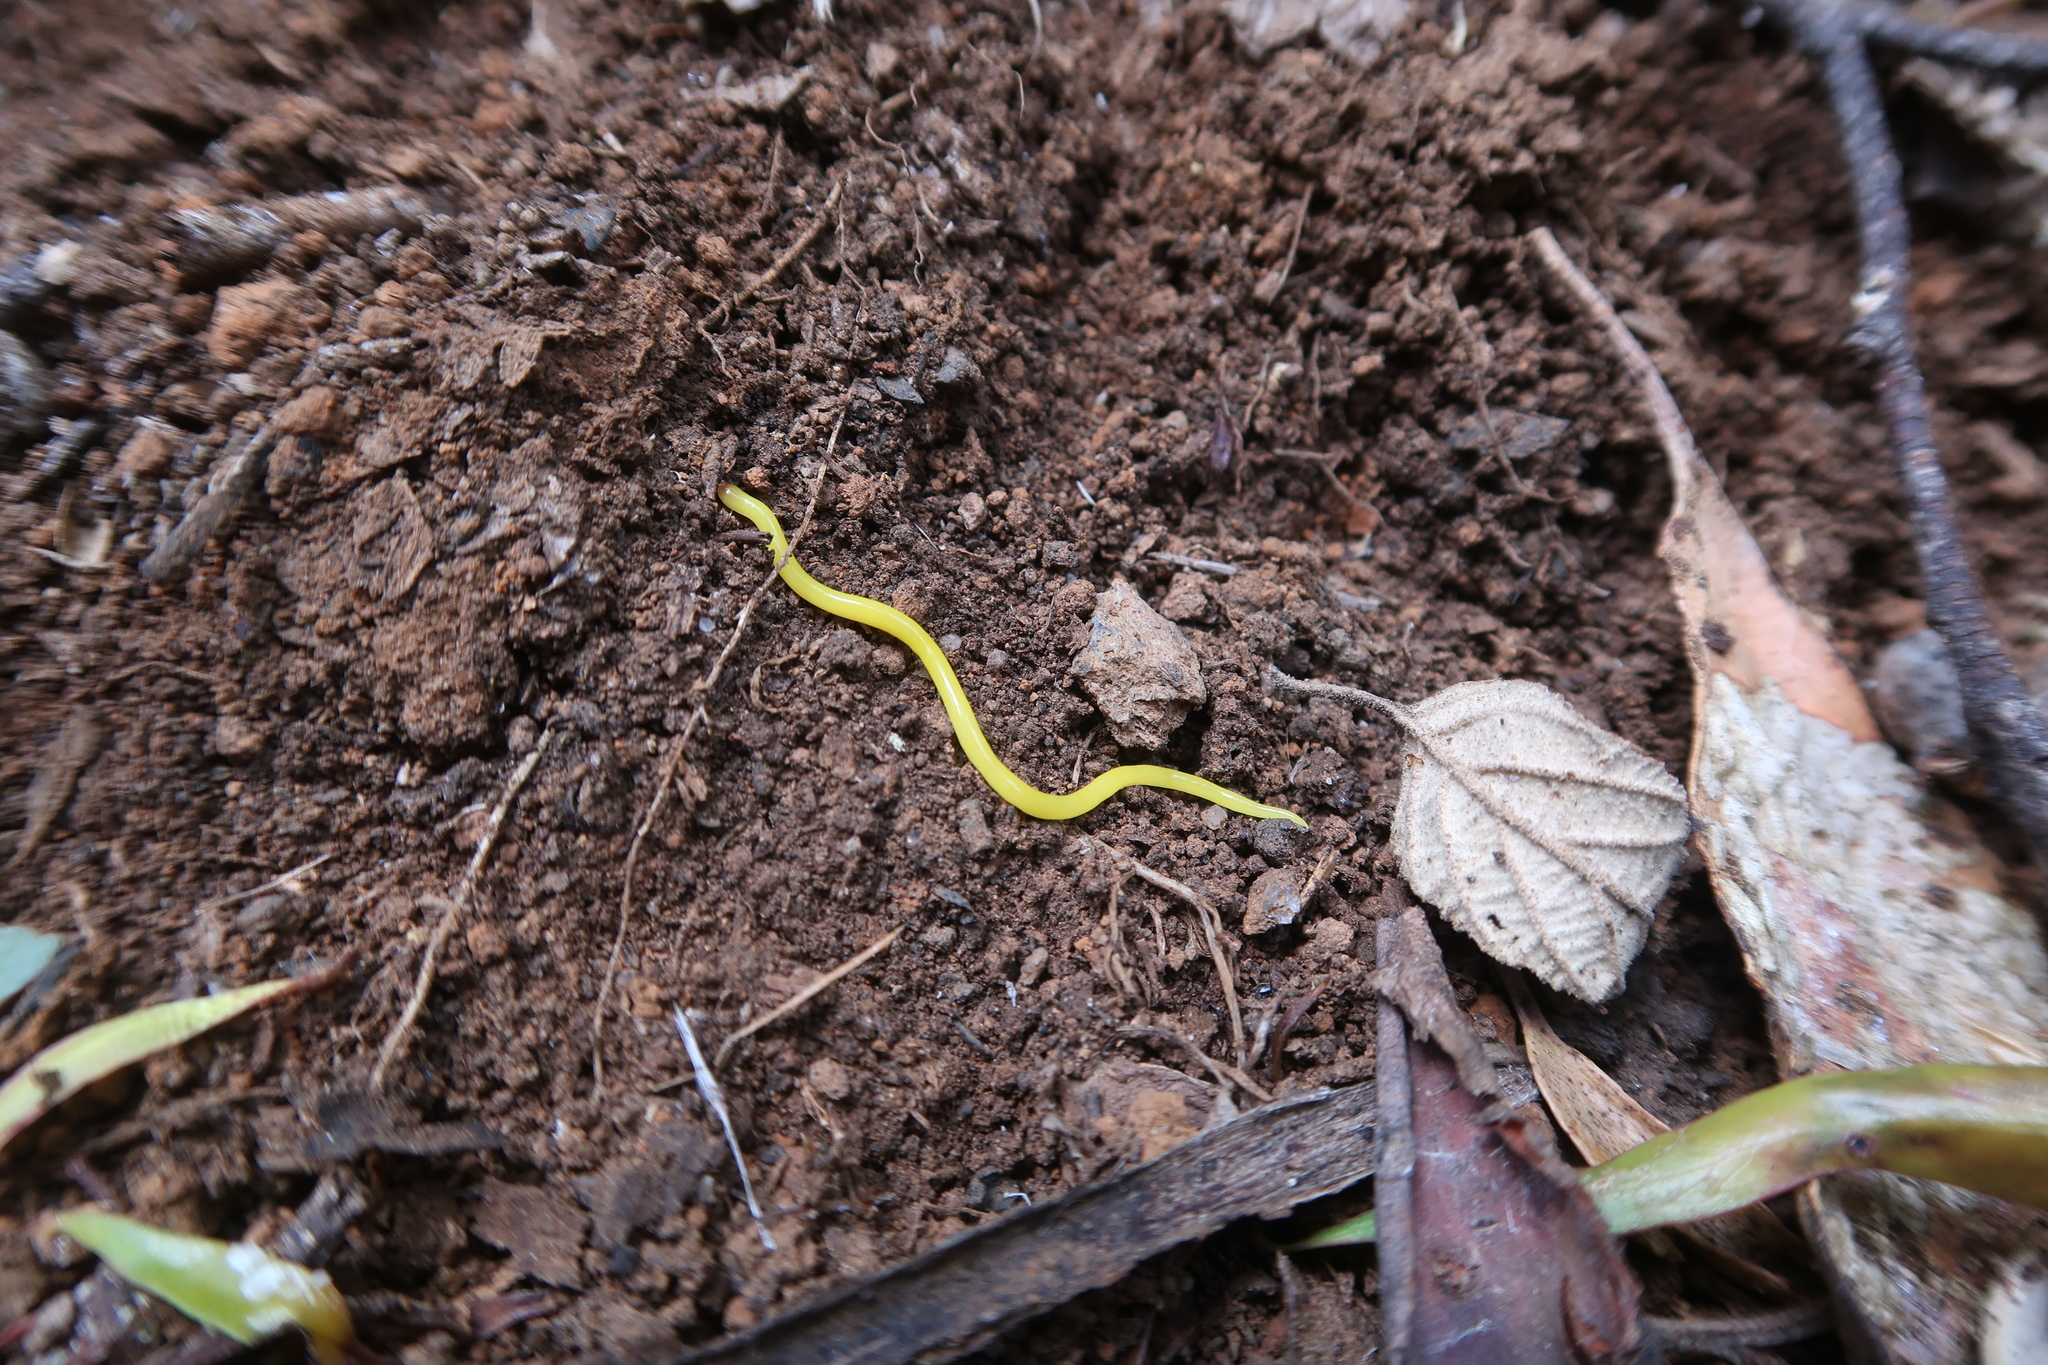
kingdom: Animalia
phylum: Platyhelminthes
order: Tricladida
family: Geoplanidae
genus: Fletchamia
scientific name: Fletchamia sugdeni
